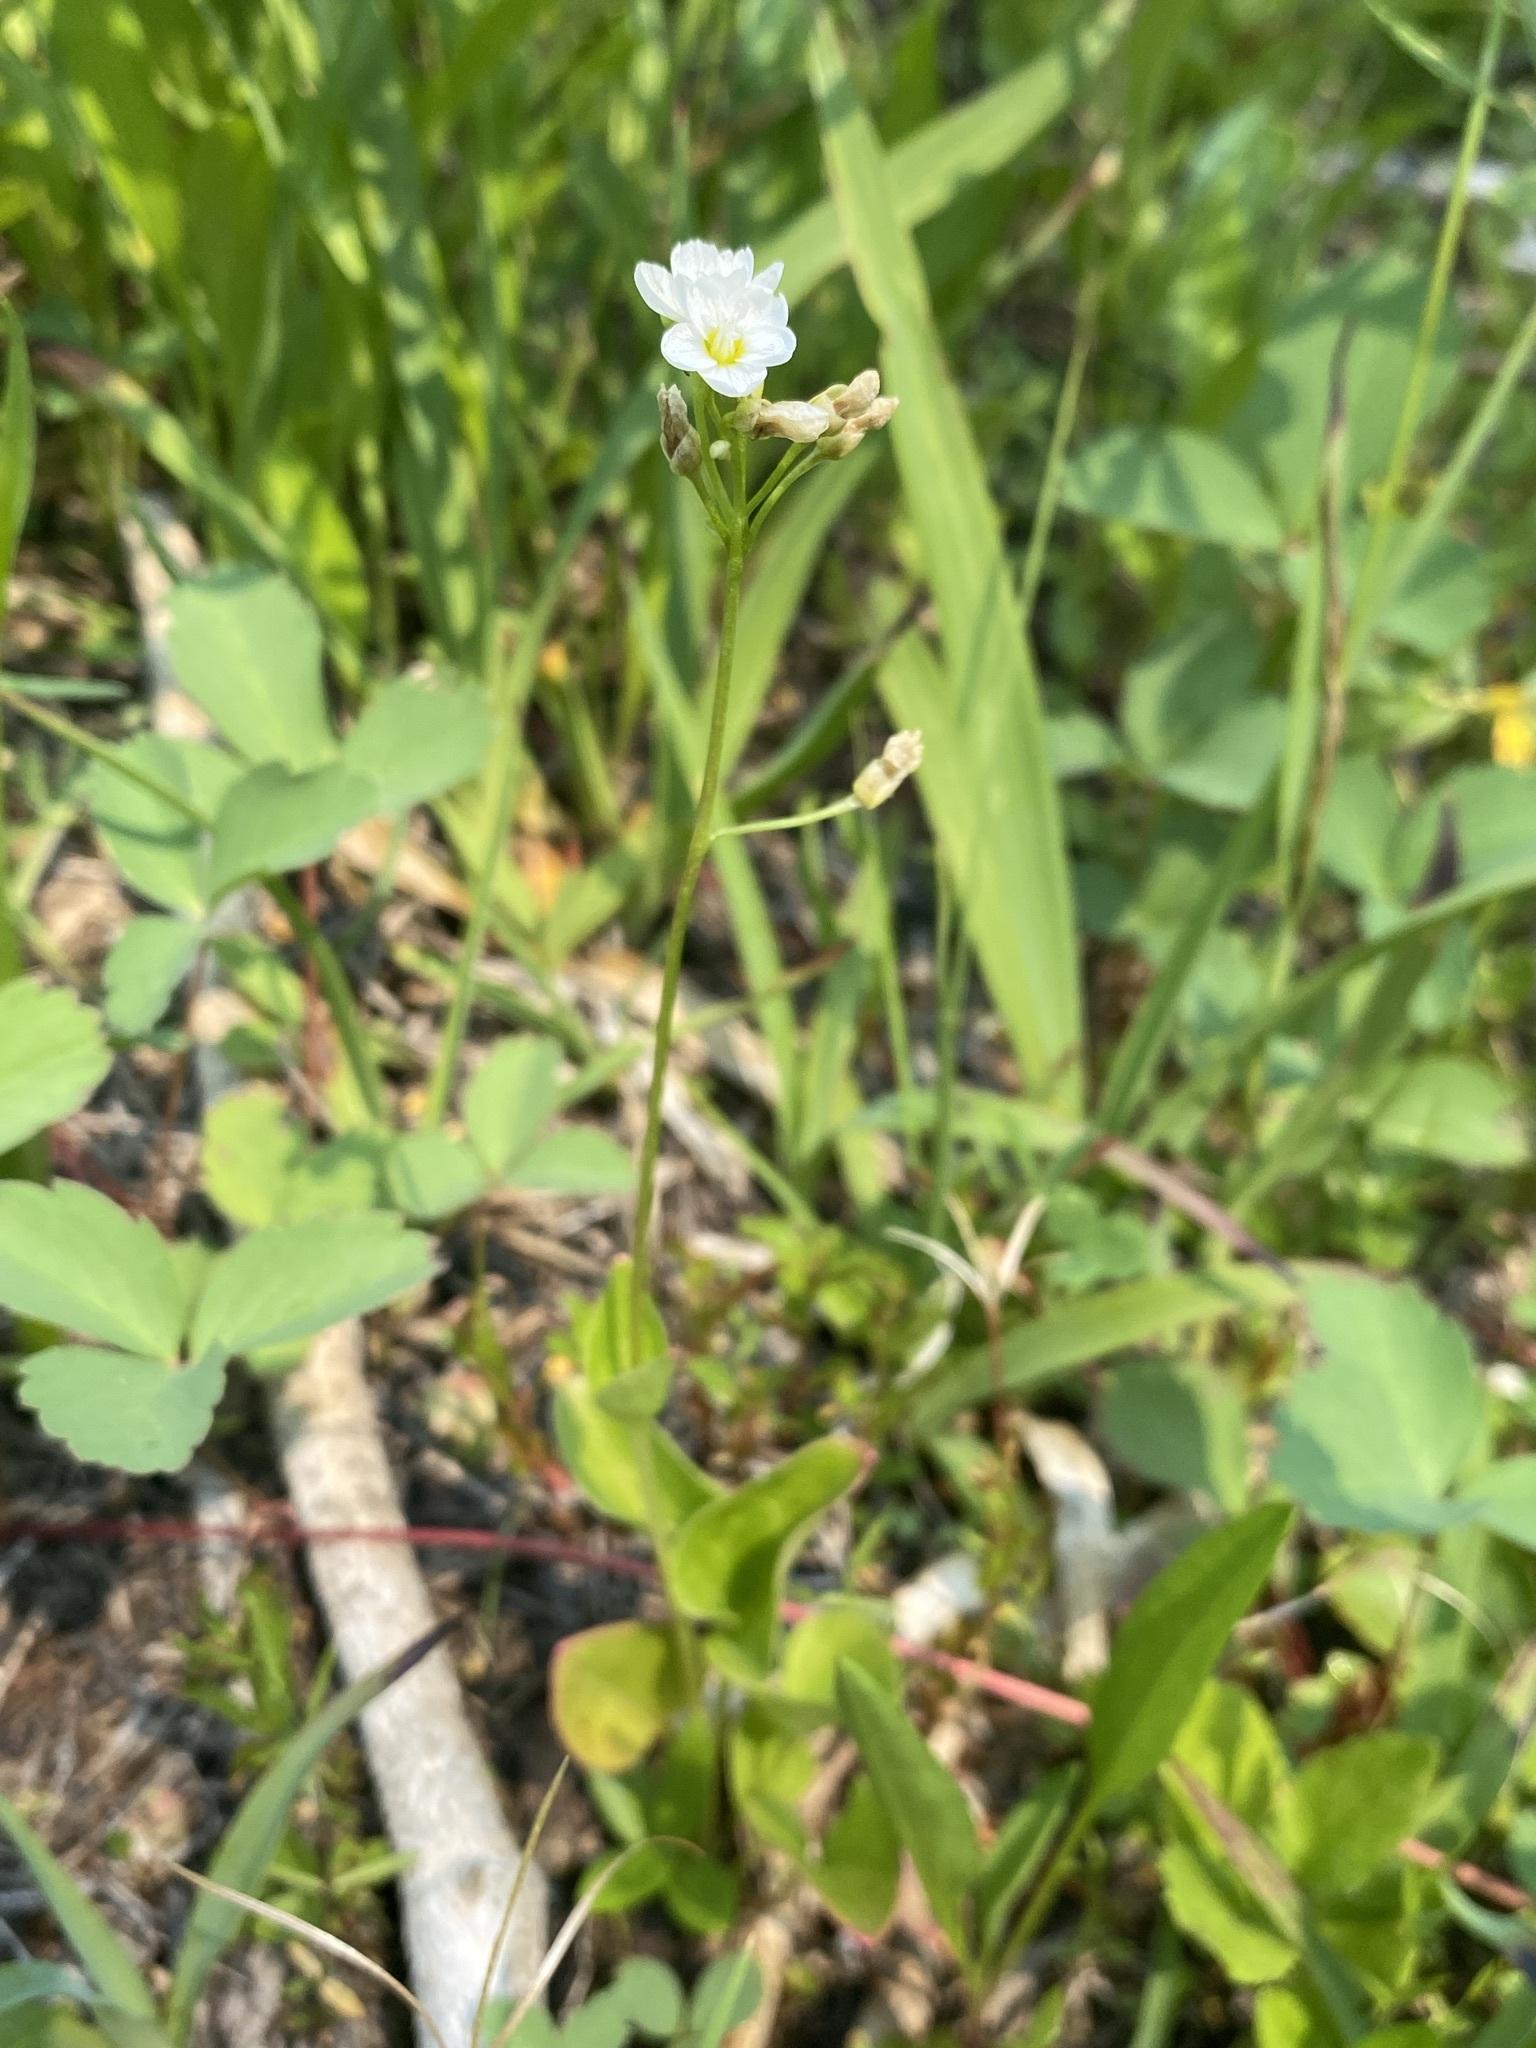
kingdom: Plantae
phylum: Tracheophyta
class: Magnoliopsida
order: Caryophyllales
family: Montiaceae
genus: Claytonia
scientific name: Claytonia cordifolia
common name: Broad-leaved spring beauty
